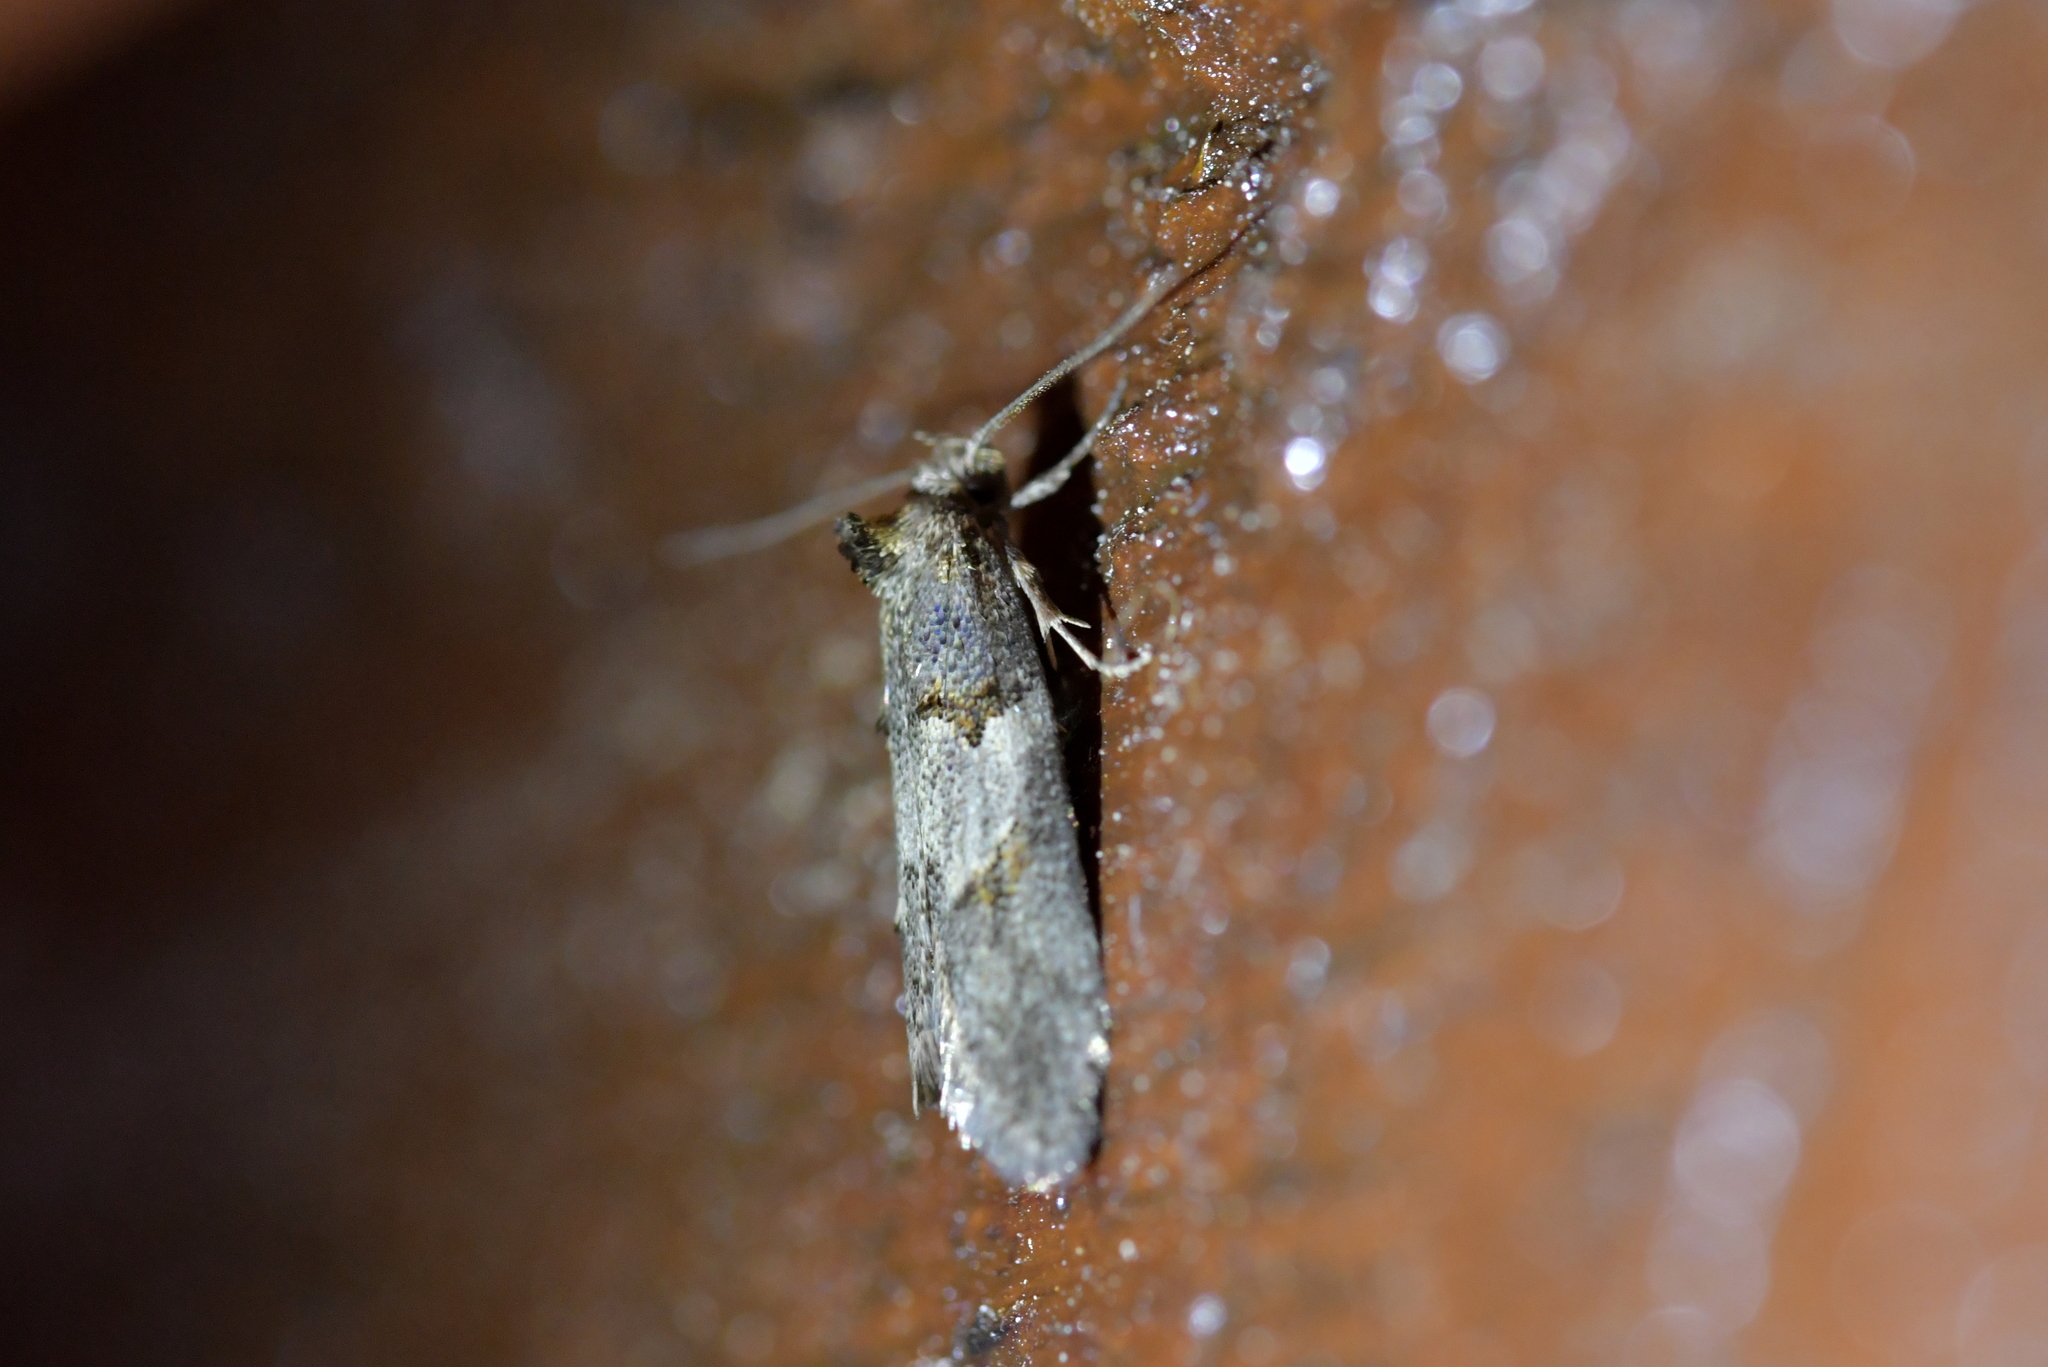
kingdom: Animalia
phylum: Arthropoda
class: Insecta
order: Lepidoptera
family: Oecophoridae
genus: Trachypepla
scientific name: Trachypepla contritella
